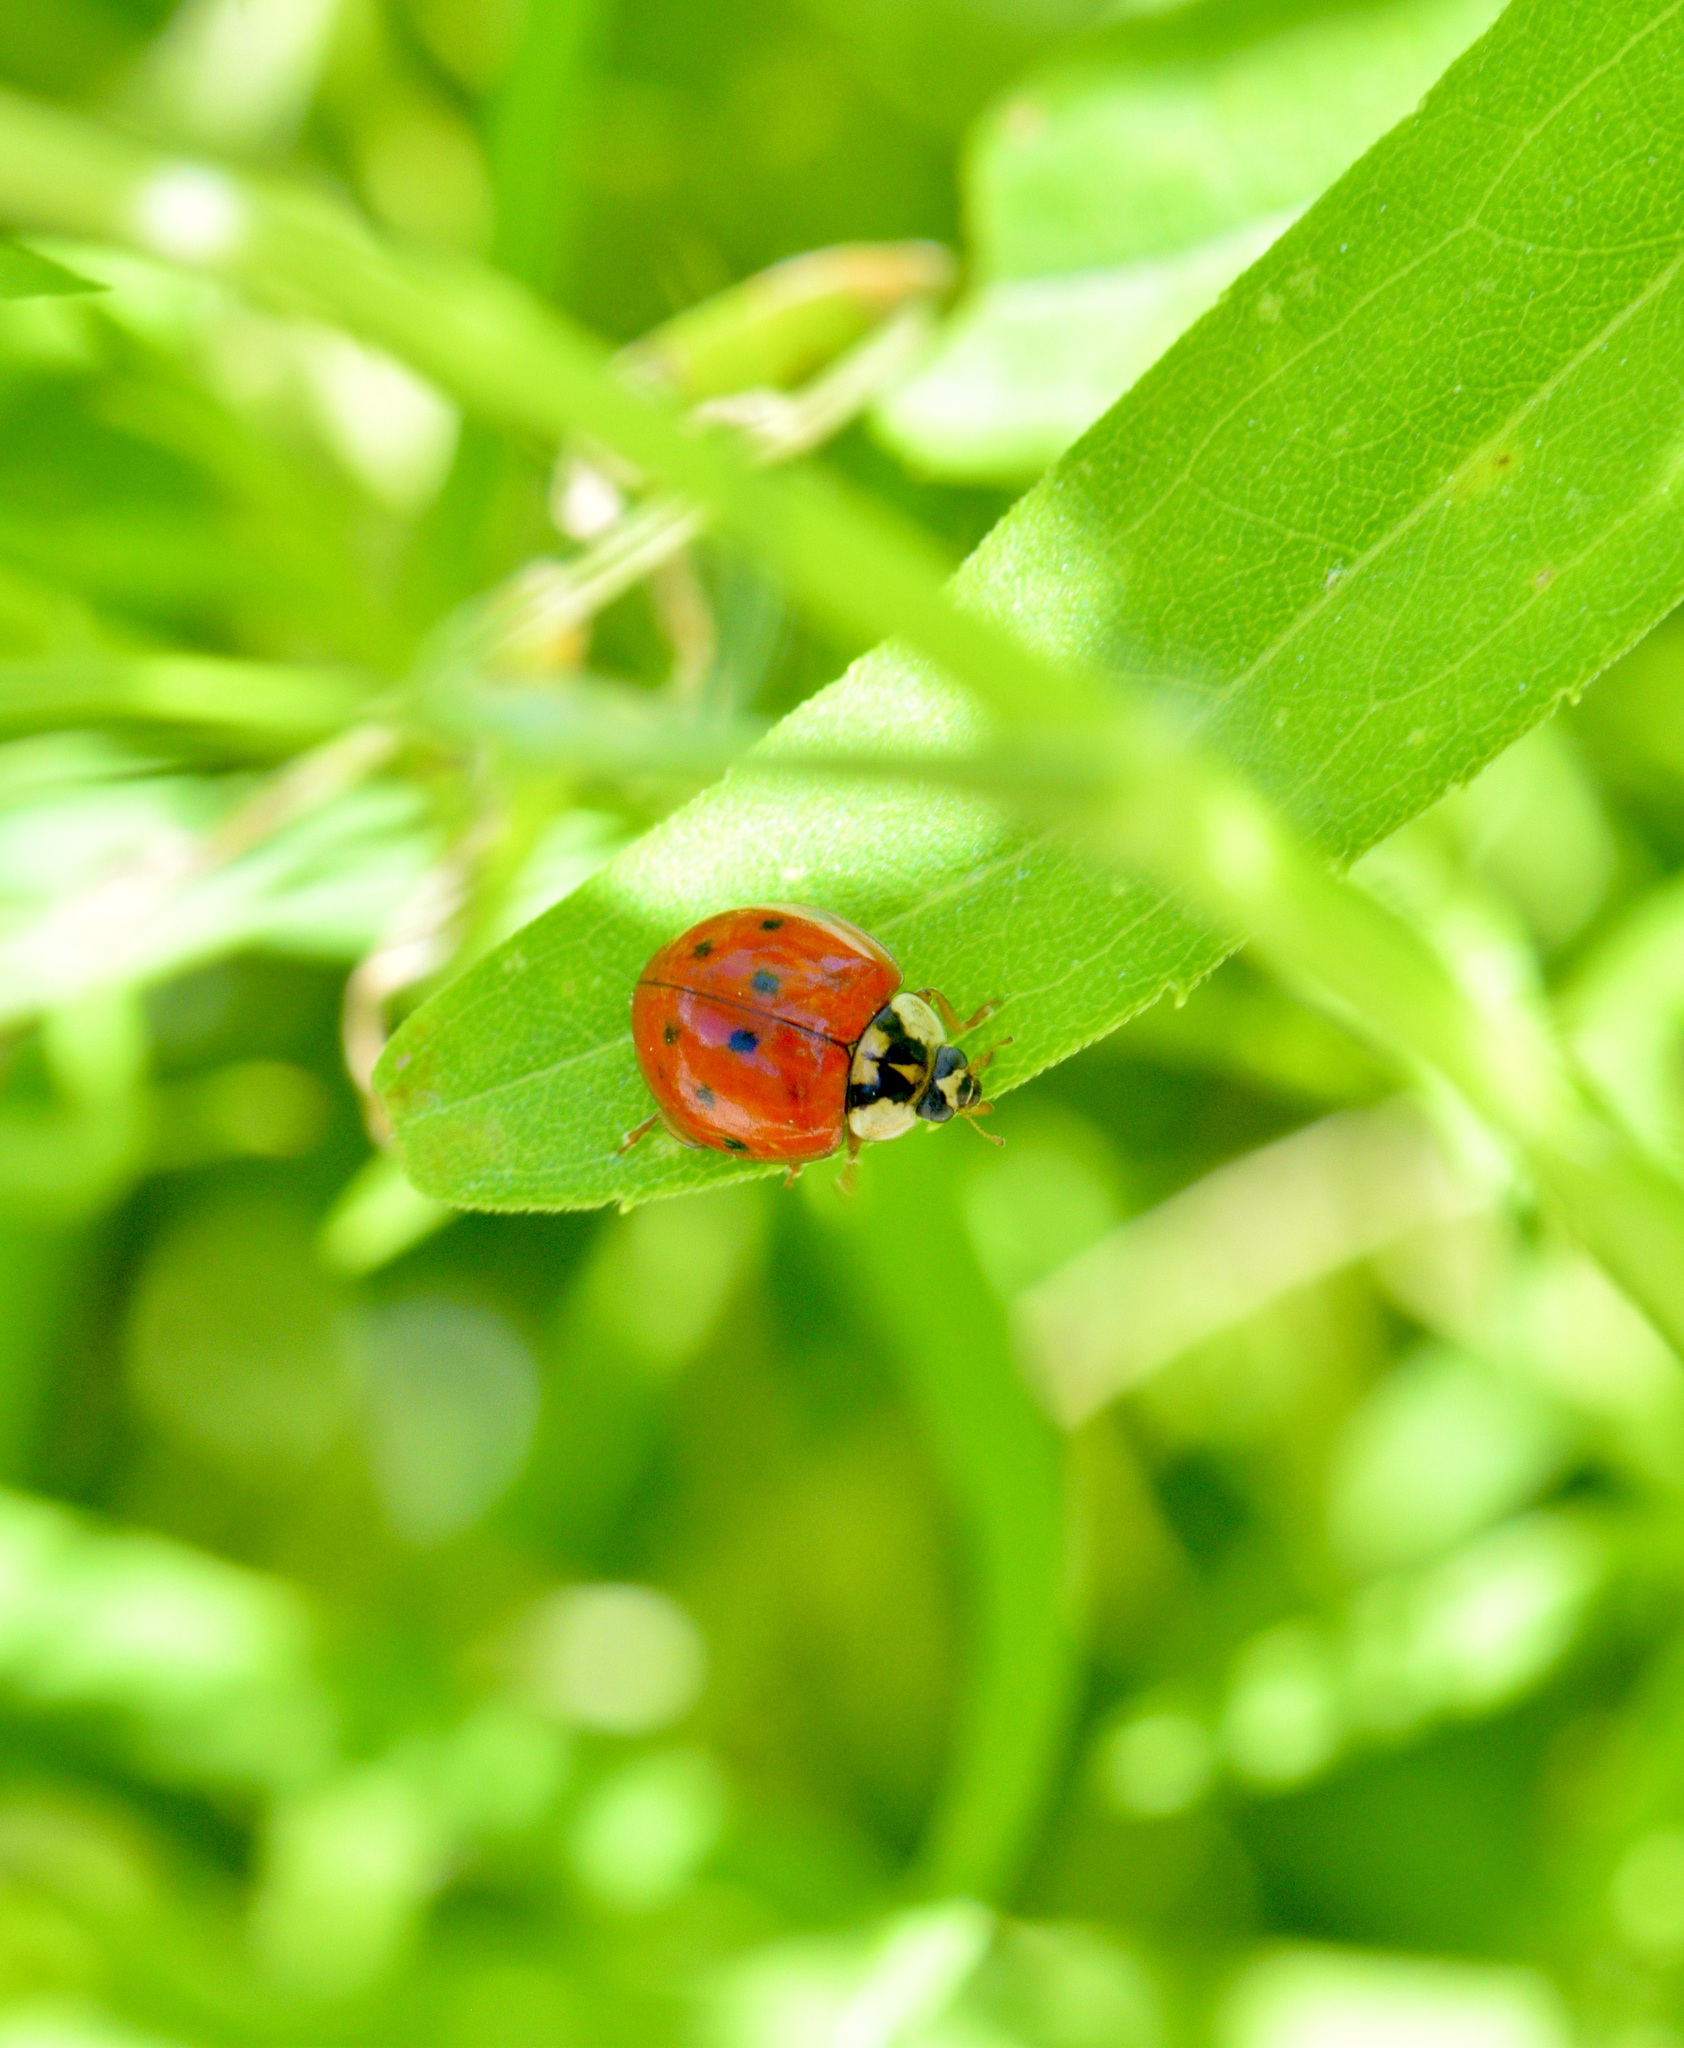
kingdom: Animalia
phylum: Arthropoda
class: Insecta
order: Coleoptera
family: Coccinellidae
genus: Harmonia
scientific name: Harmonia axyridis
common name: Harlequin ladybird
